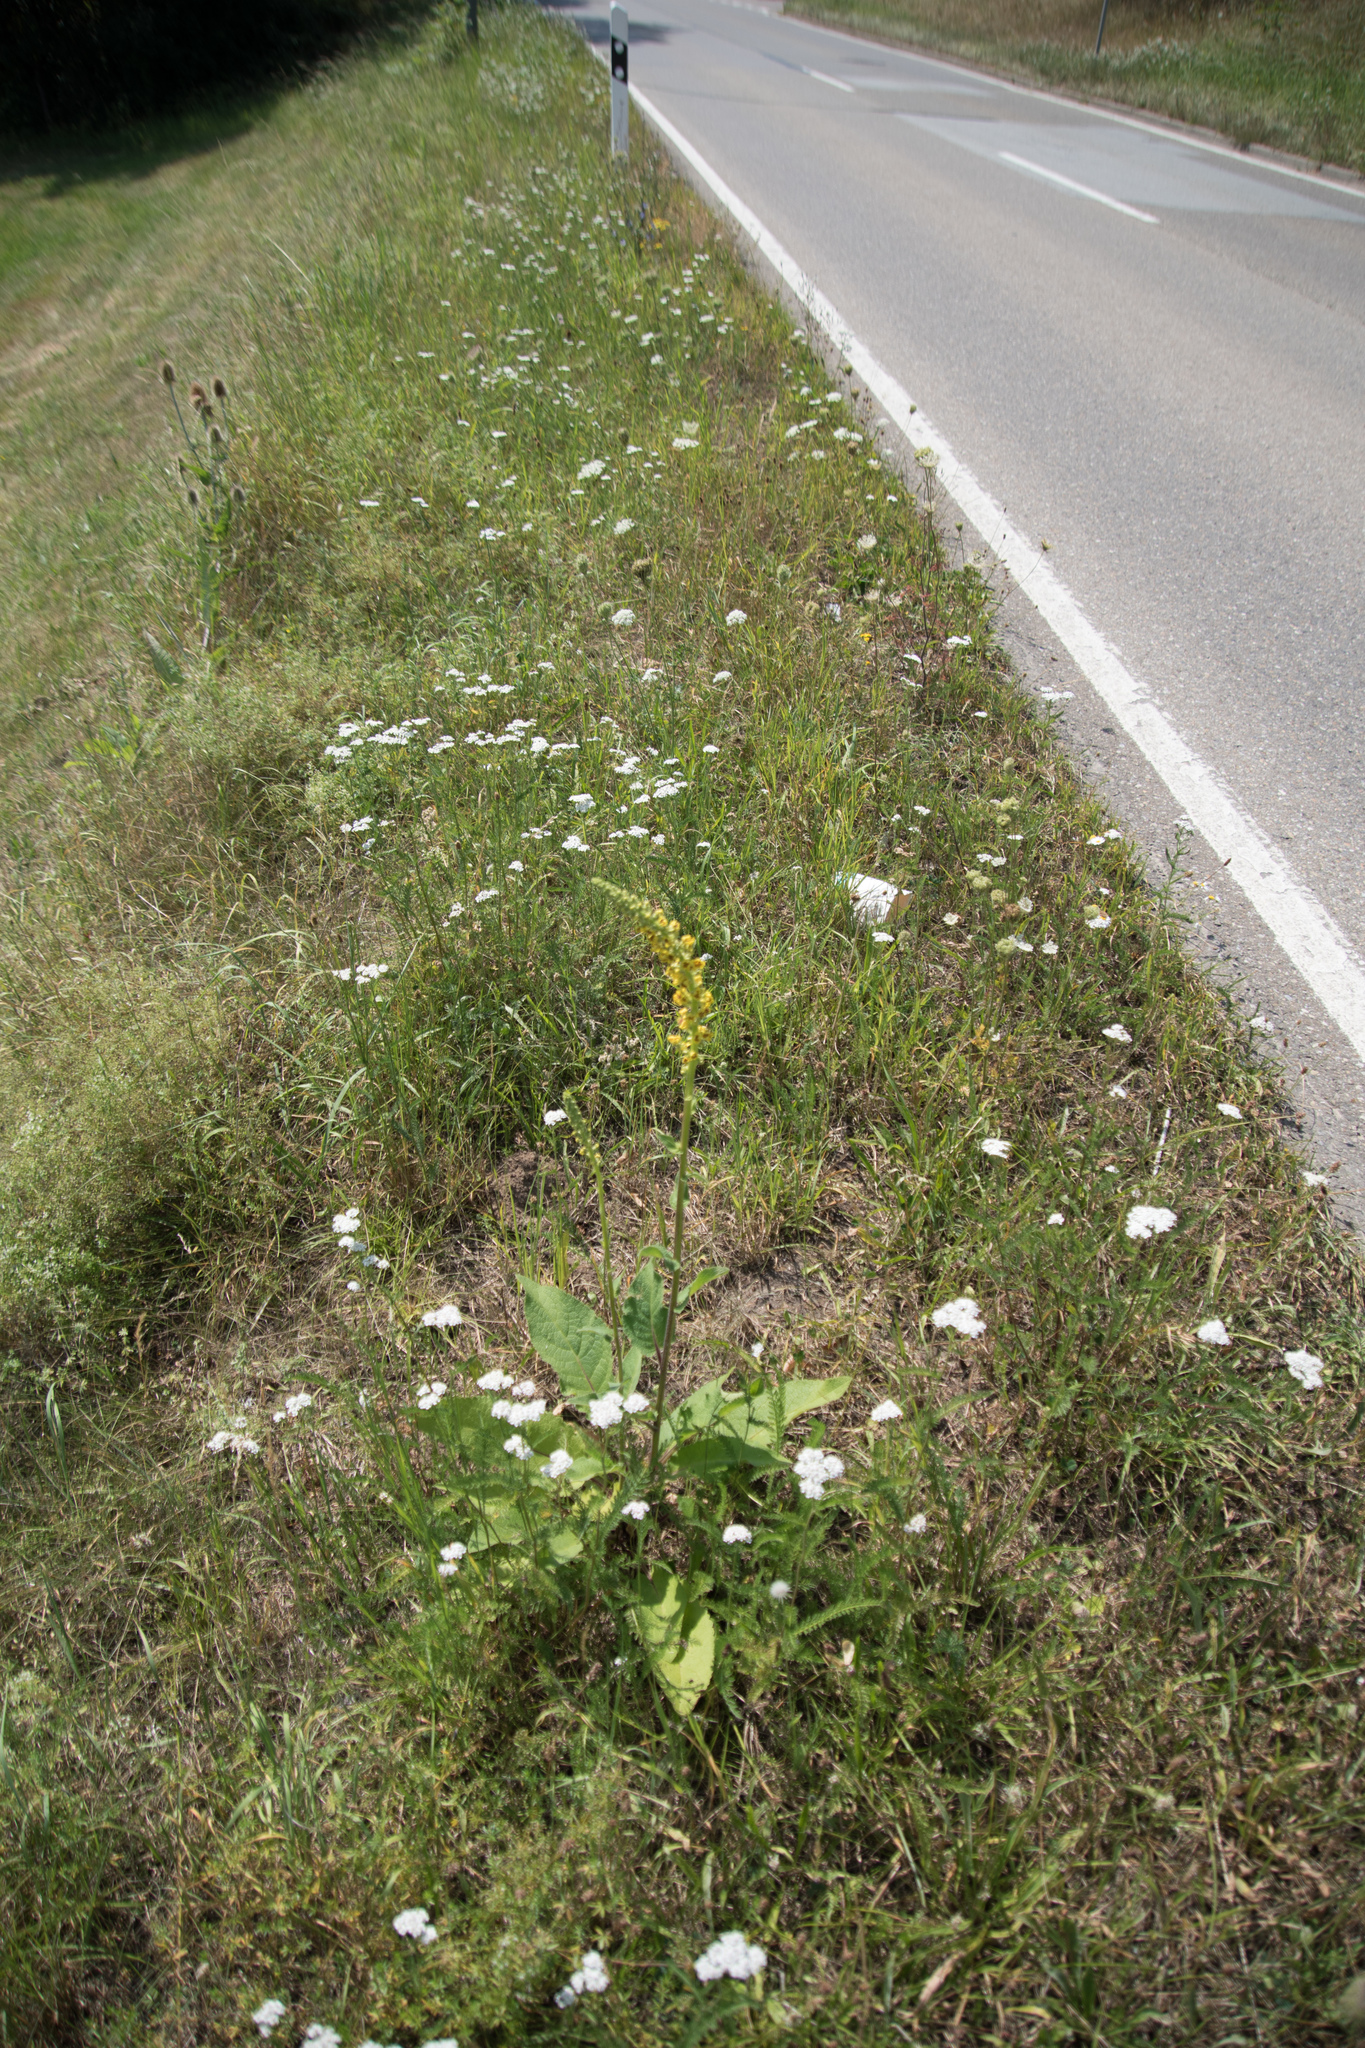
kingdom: Plantae
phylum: Tracheophyta
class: Magnoliopsida
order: Lamiales
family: Scrophulariaceae
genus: Verbascum
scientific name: Verbascum nigrum
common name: Dark mullein
